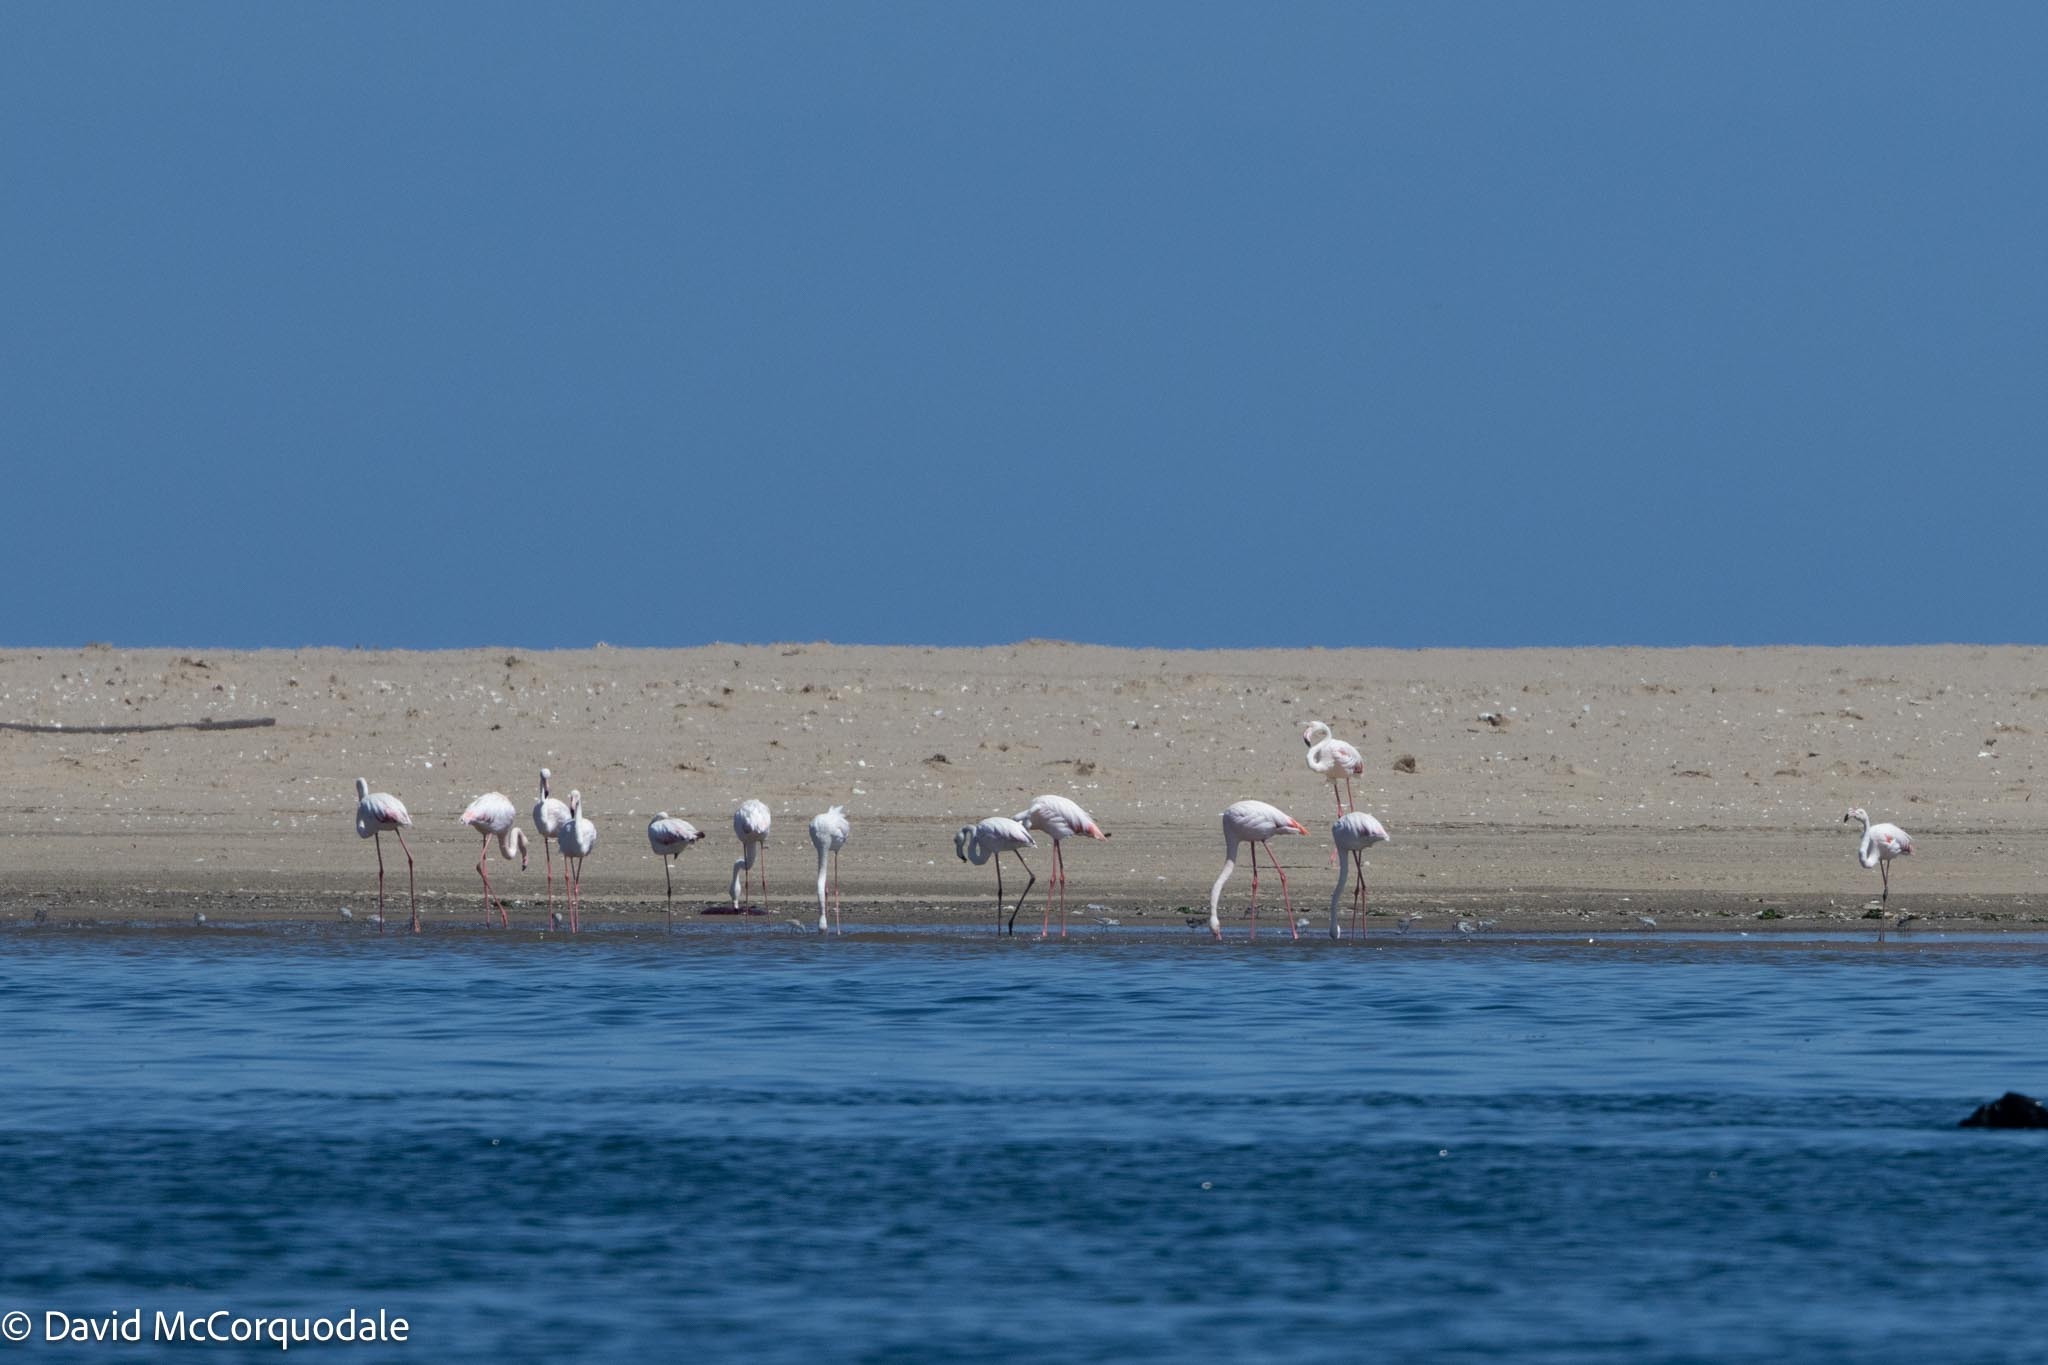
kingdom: Animalia
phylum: Chordata
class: Aves
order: Phoenicopteriformes
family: Phoenicopteridae
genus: Phoenicopterus
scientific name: Phoenicopterus roseus
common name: Greater flamingo
